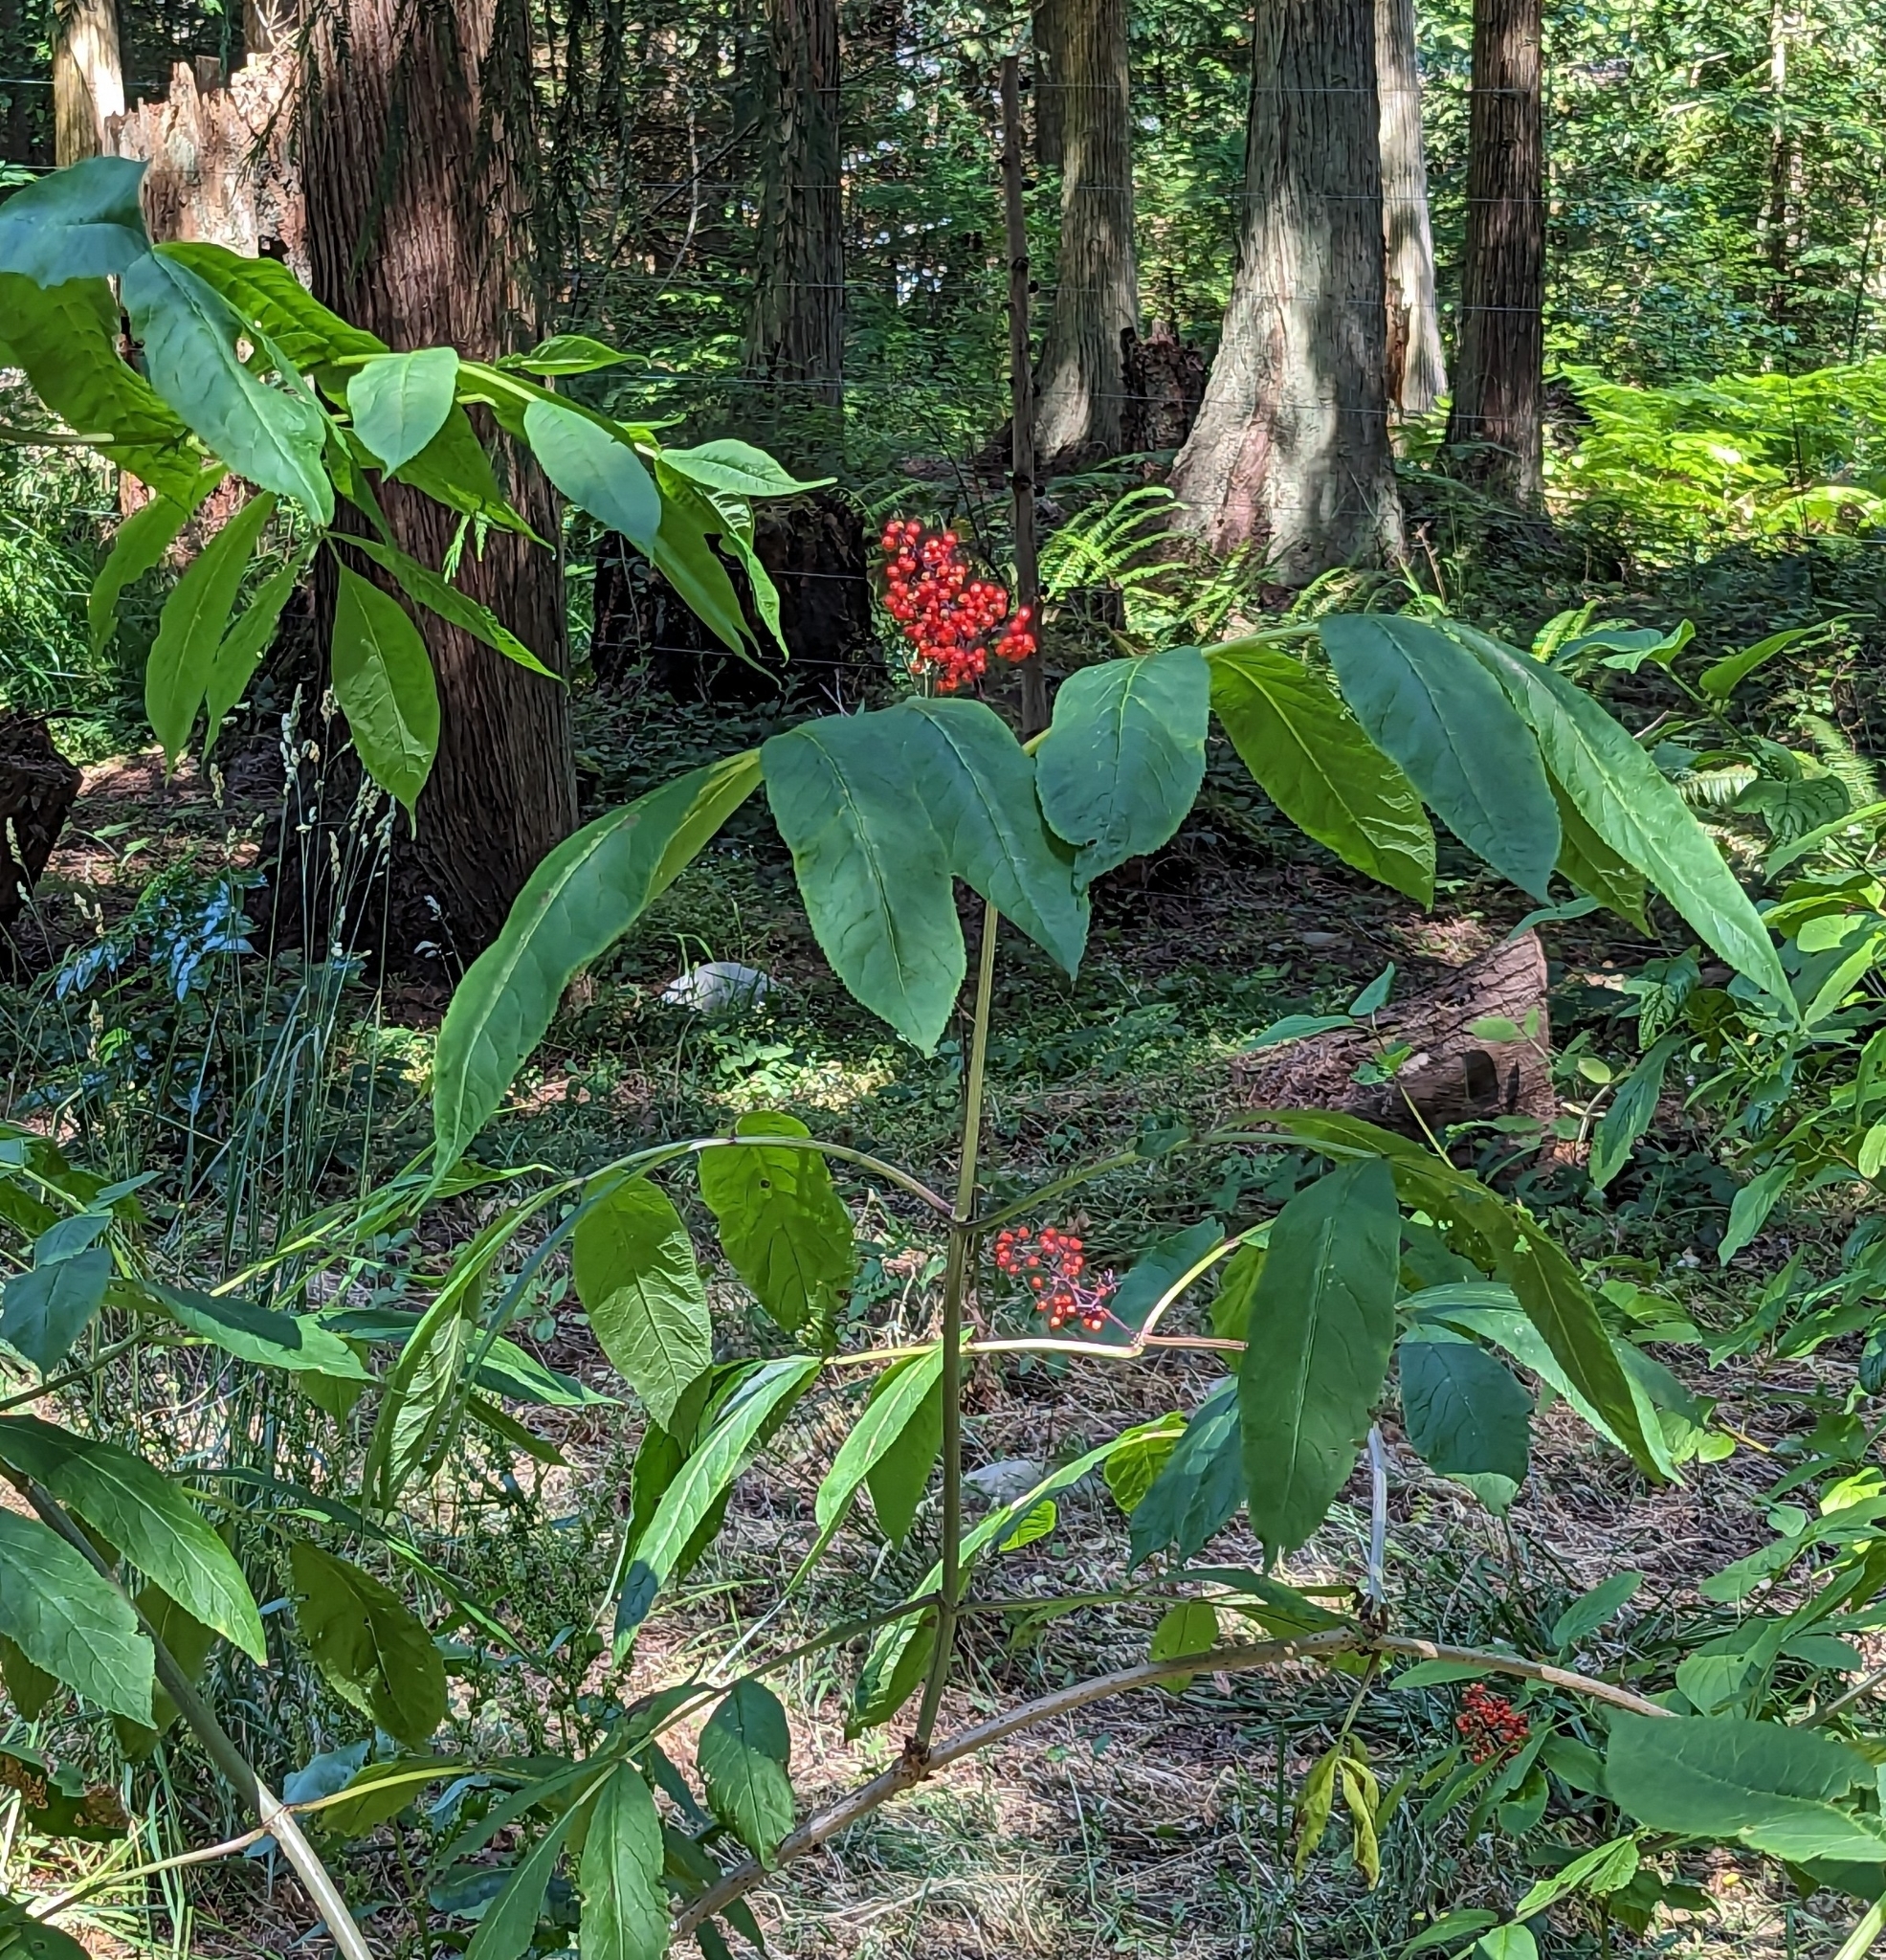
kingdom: Plantae
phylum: Tracheophyta
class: Magnoliopsida
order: Dipsacales
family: Viburnaceae
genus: Sambucus
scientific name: Sambucus racemosa
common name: Red-berried elder
